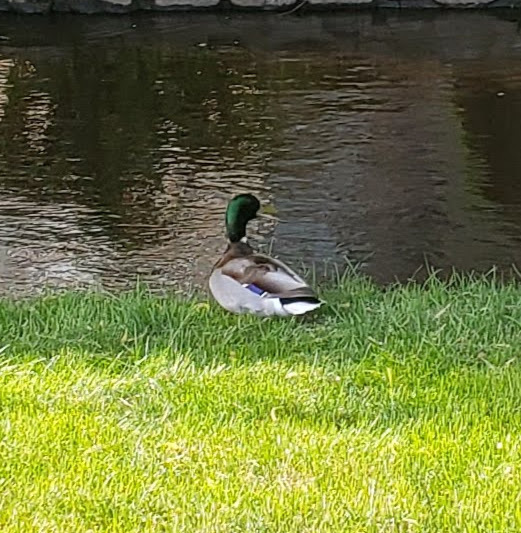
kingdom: Animalia
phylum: Chordata
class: Aves
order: Anseriformes
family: Anatidae
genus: Anas
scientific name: Anas platyrhynchos
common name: Mallard
